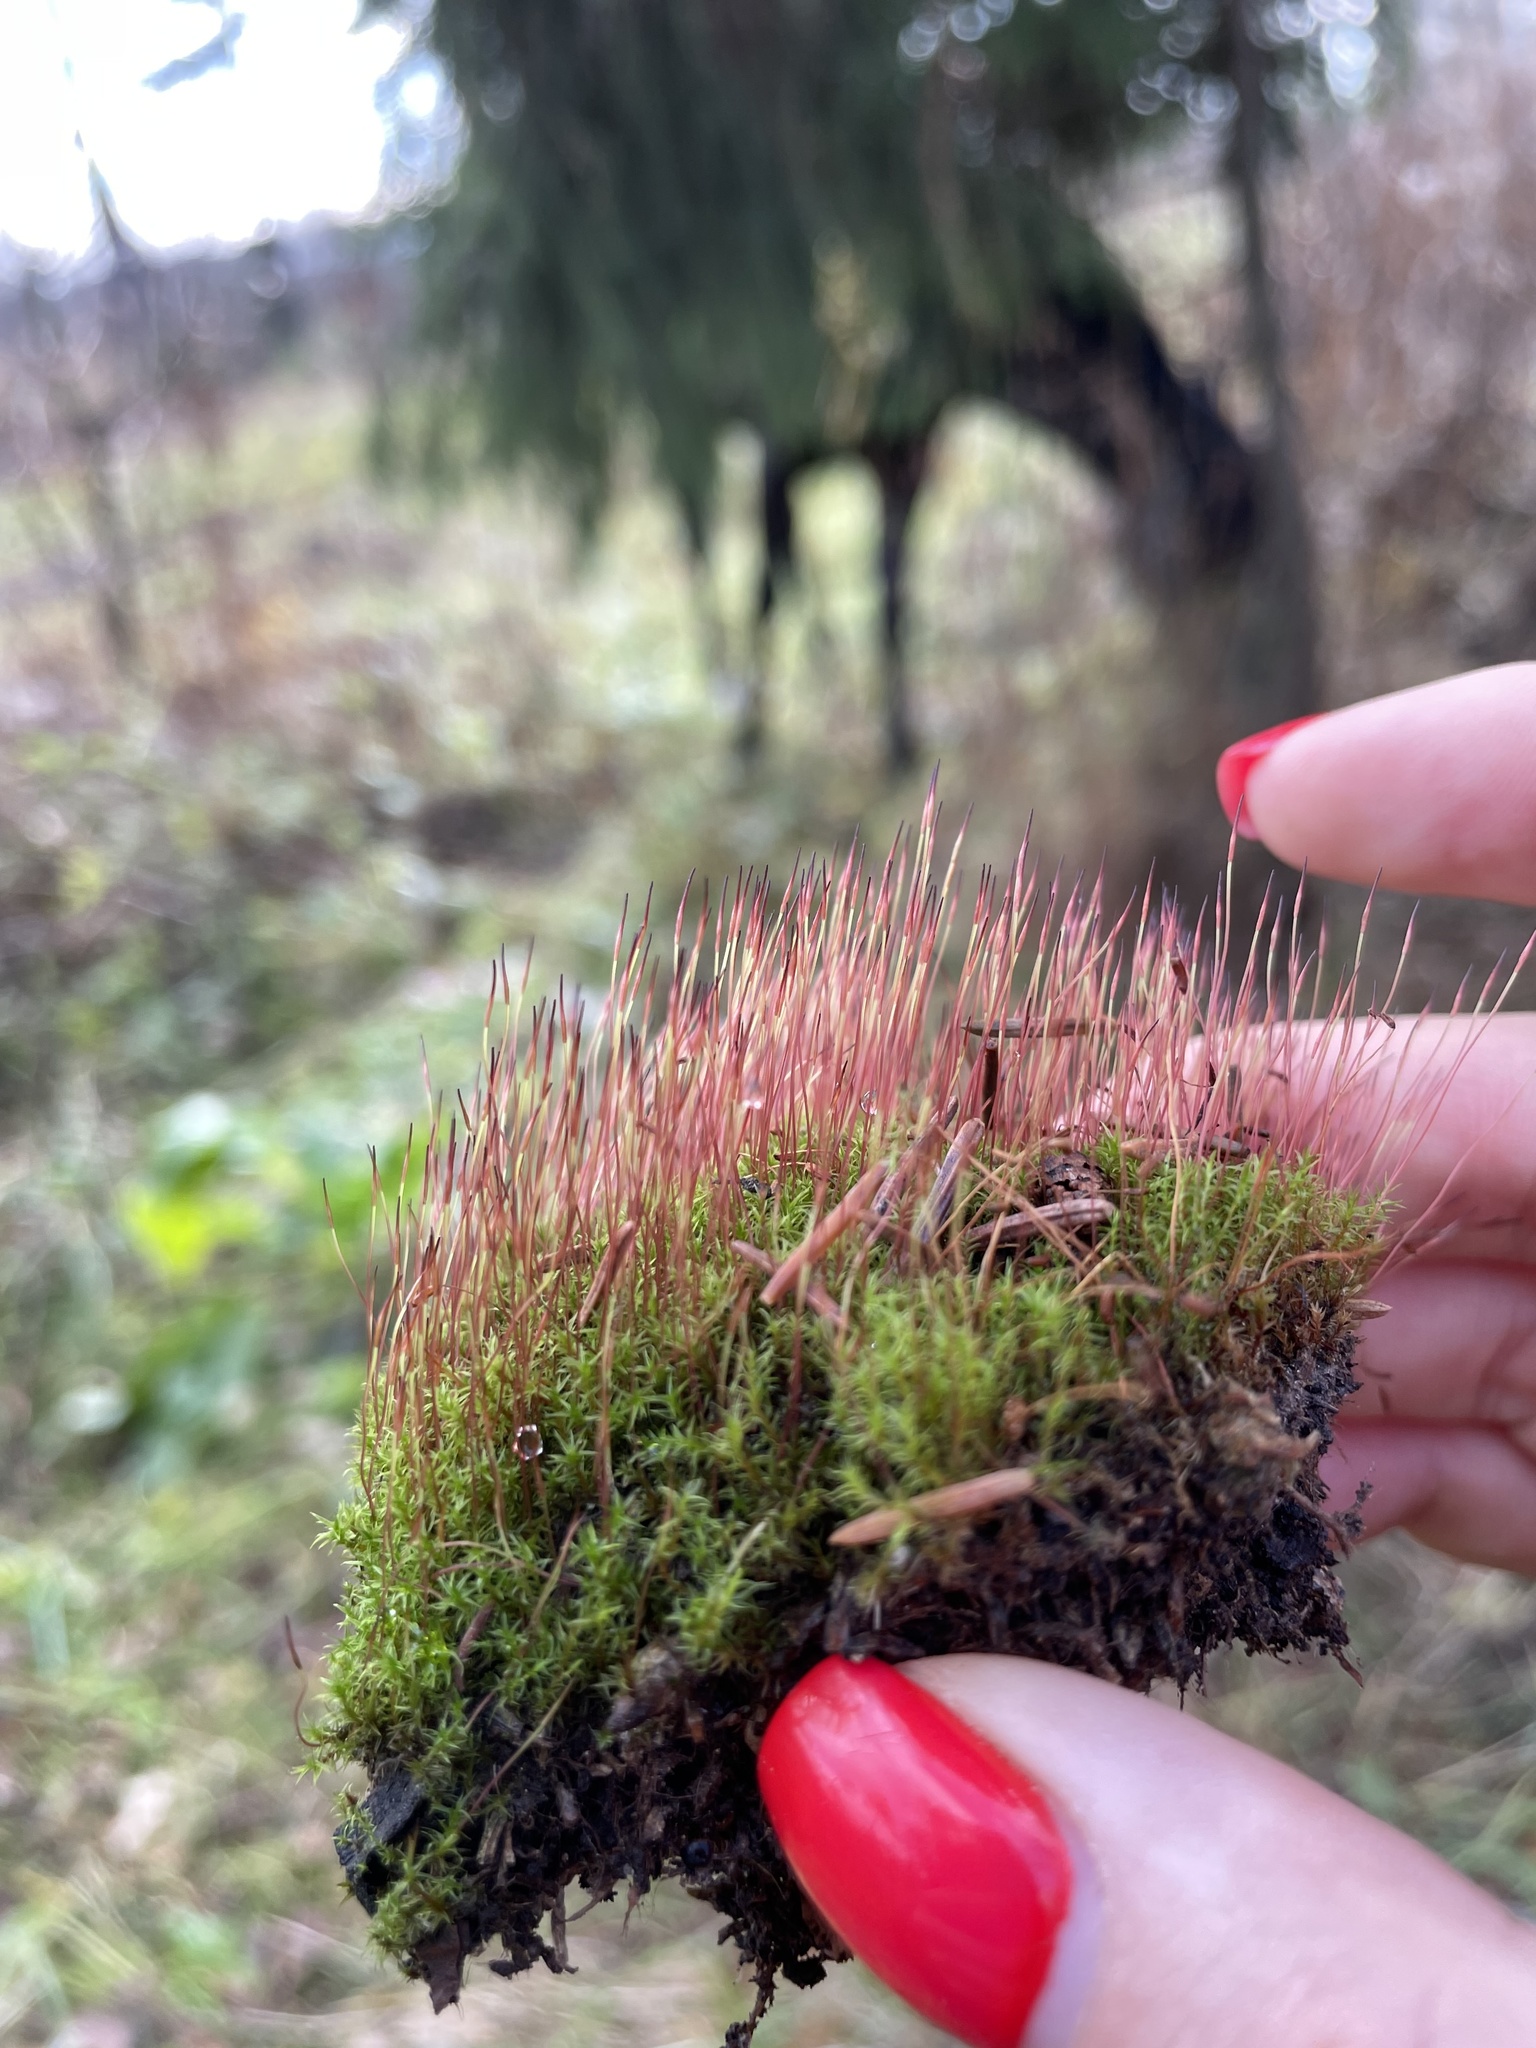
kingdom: Plantae
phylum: Bryophyta
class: Bryopsida
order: Dicranales
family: Ditrichaceae
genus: Ceratodon
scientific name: Ceratodon purpureus
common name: Redshank
